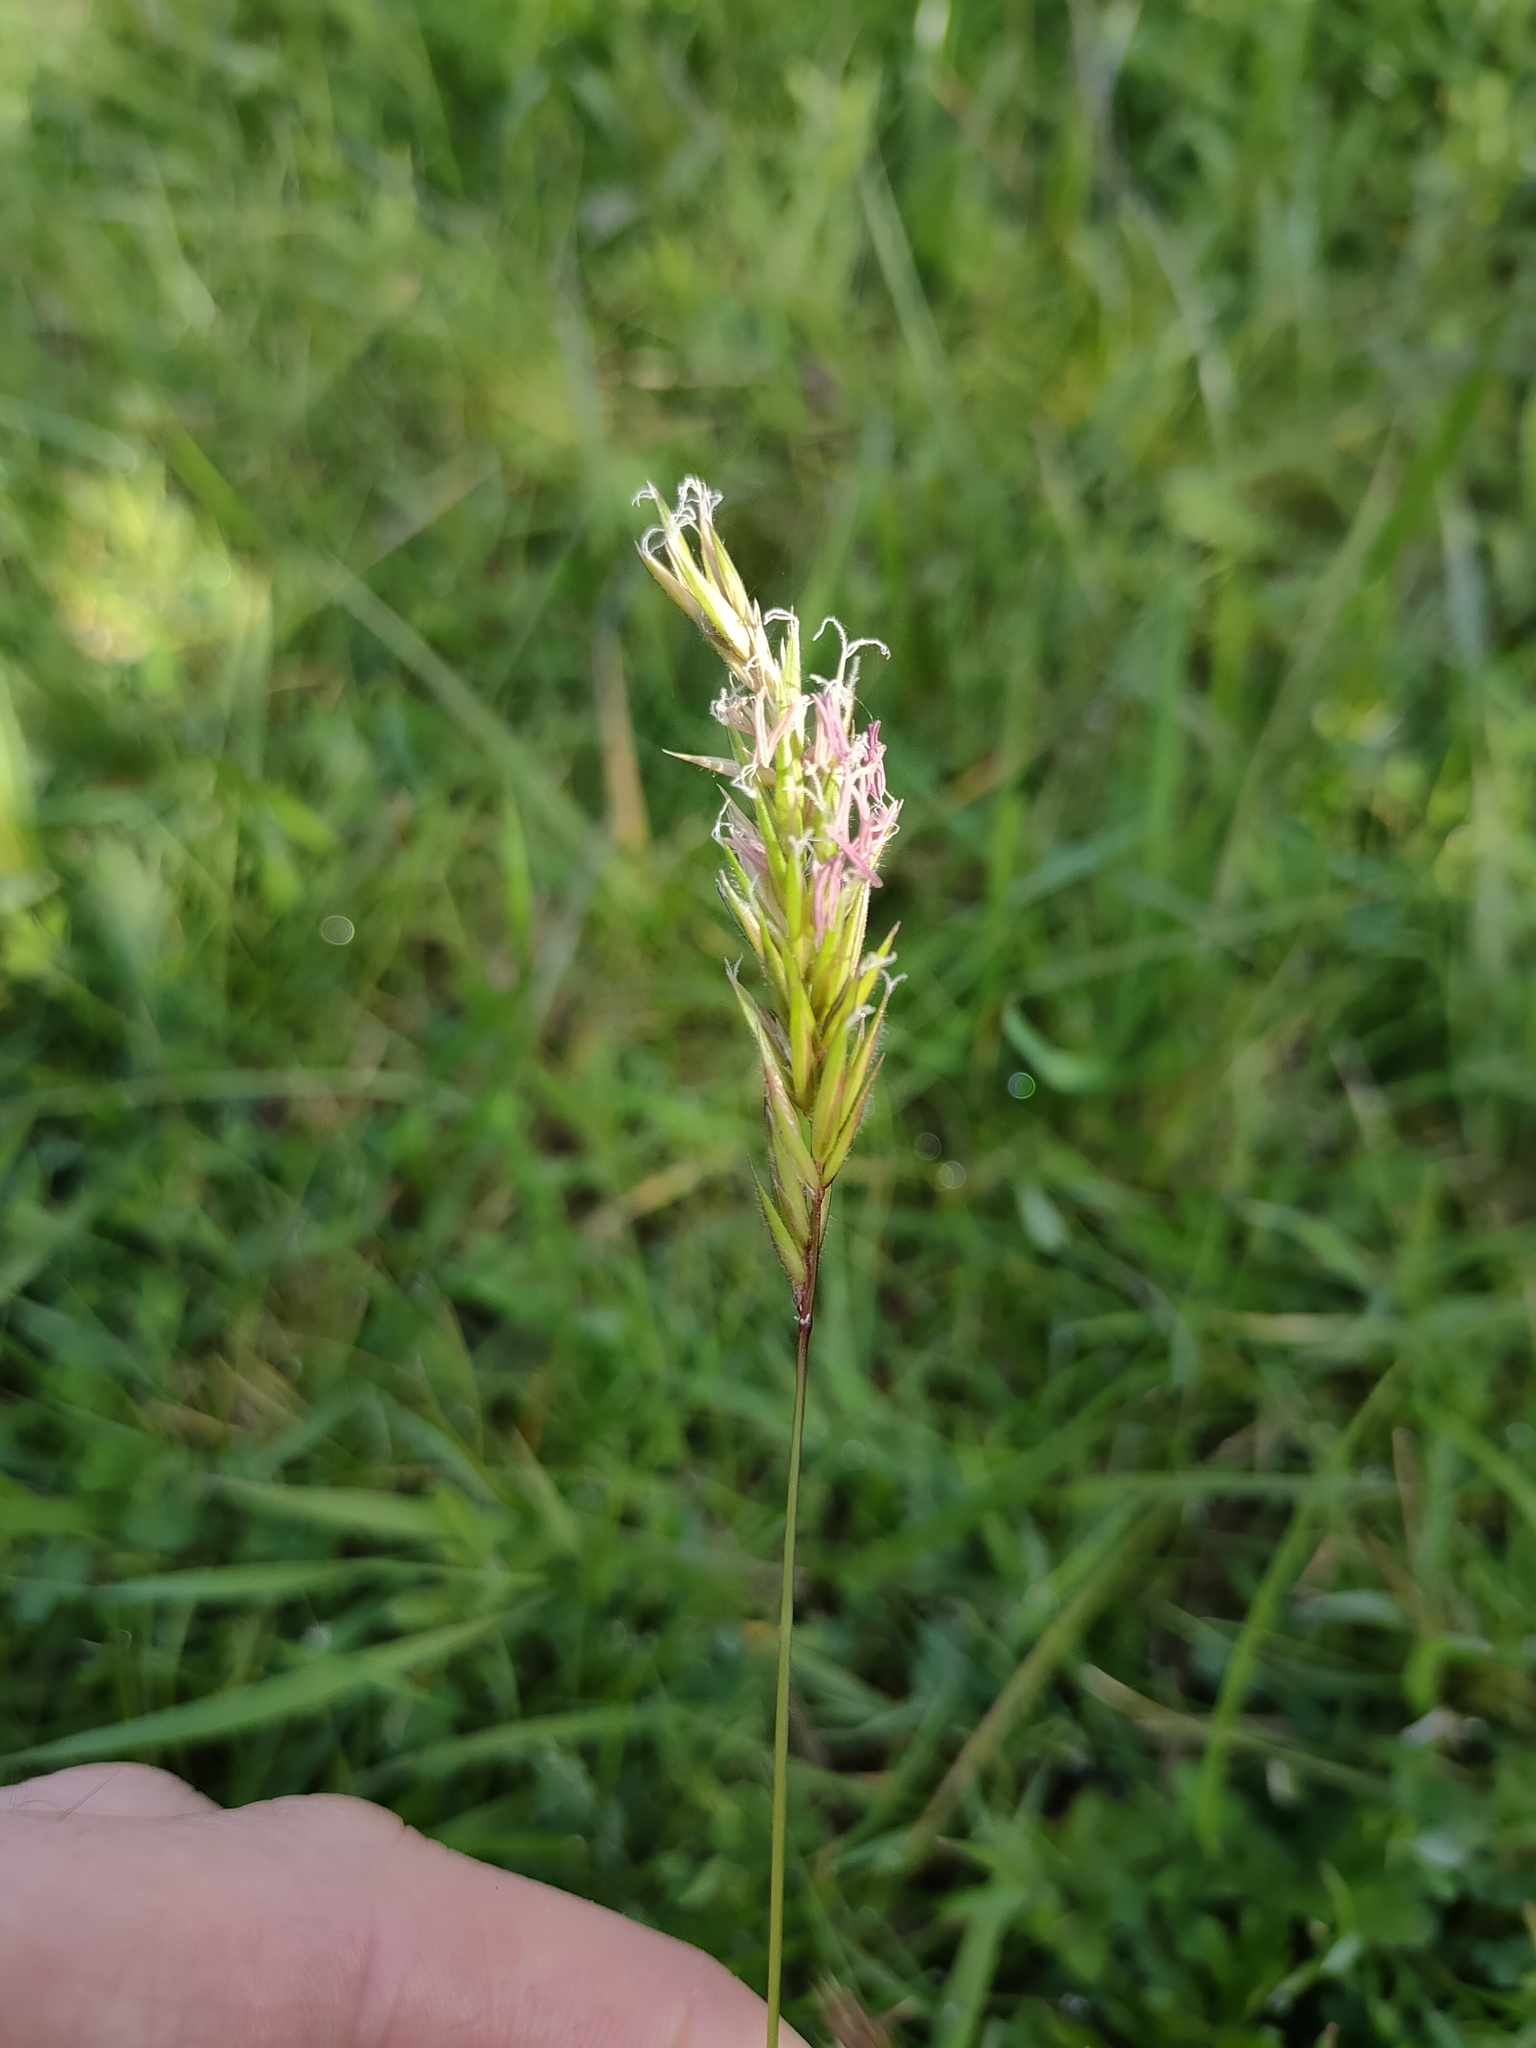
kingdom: Plantae
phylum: Tracheophyta
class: Liliopsida
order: Poales
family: Poaceae
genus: Anthoxanthum
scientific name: Anthoxanthum odoratum
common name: Sweet vernalgrass
